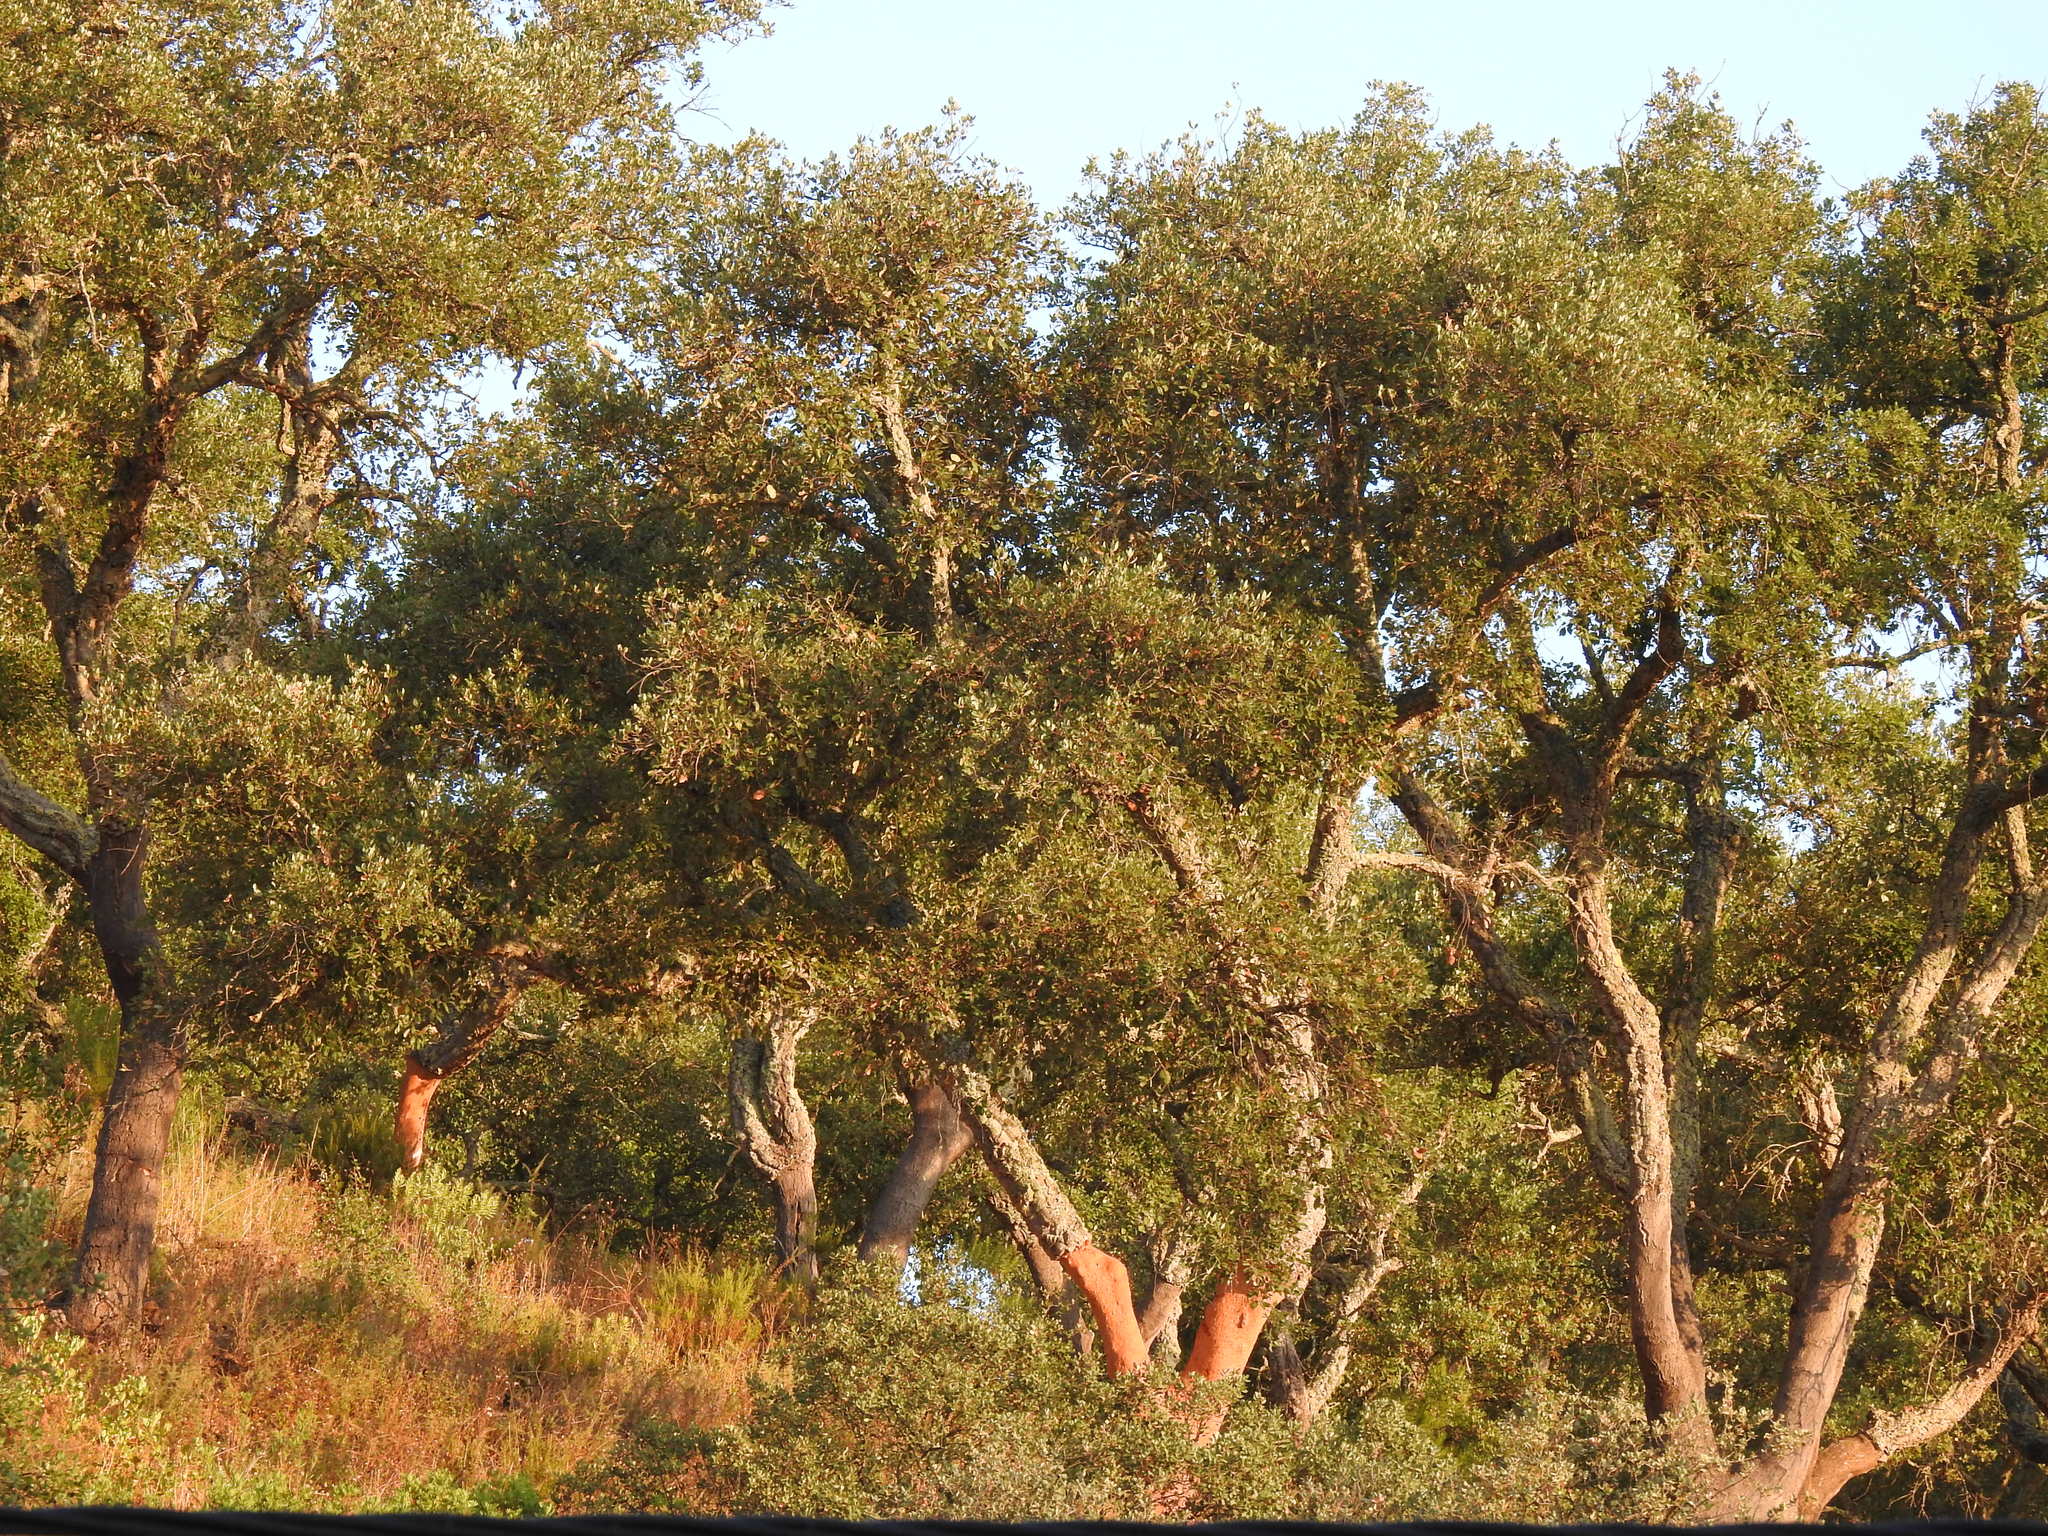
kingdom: Plantae
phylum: Tracheophyta
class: Magnoliopsida
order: Fagales
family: Fagaceae
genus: Quercus
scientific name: Quercus suber
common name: Cork oak
